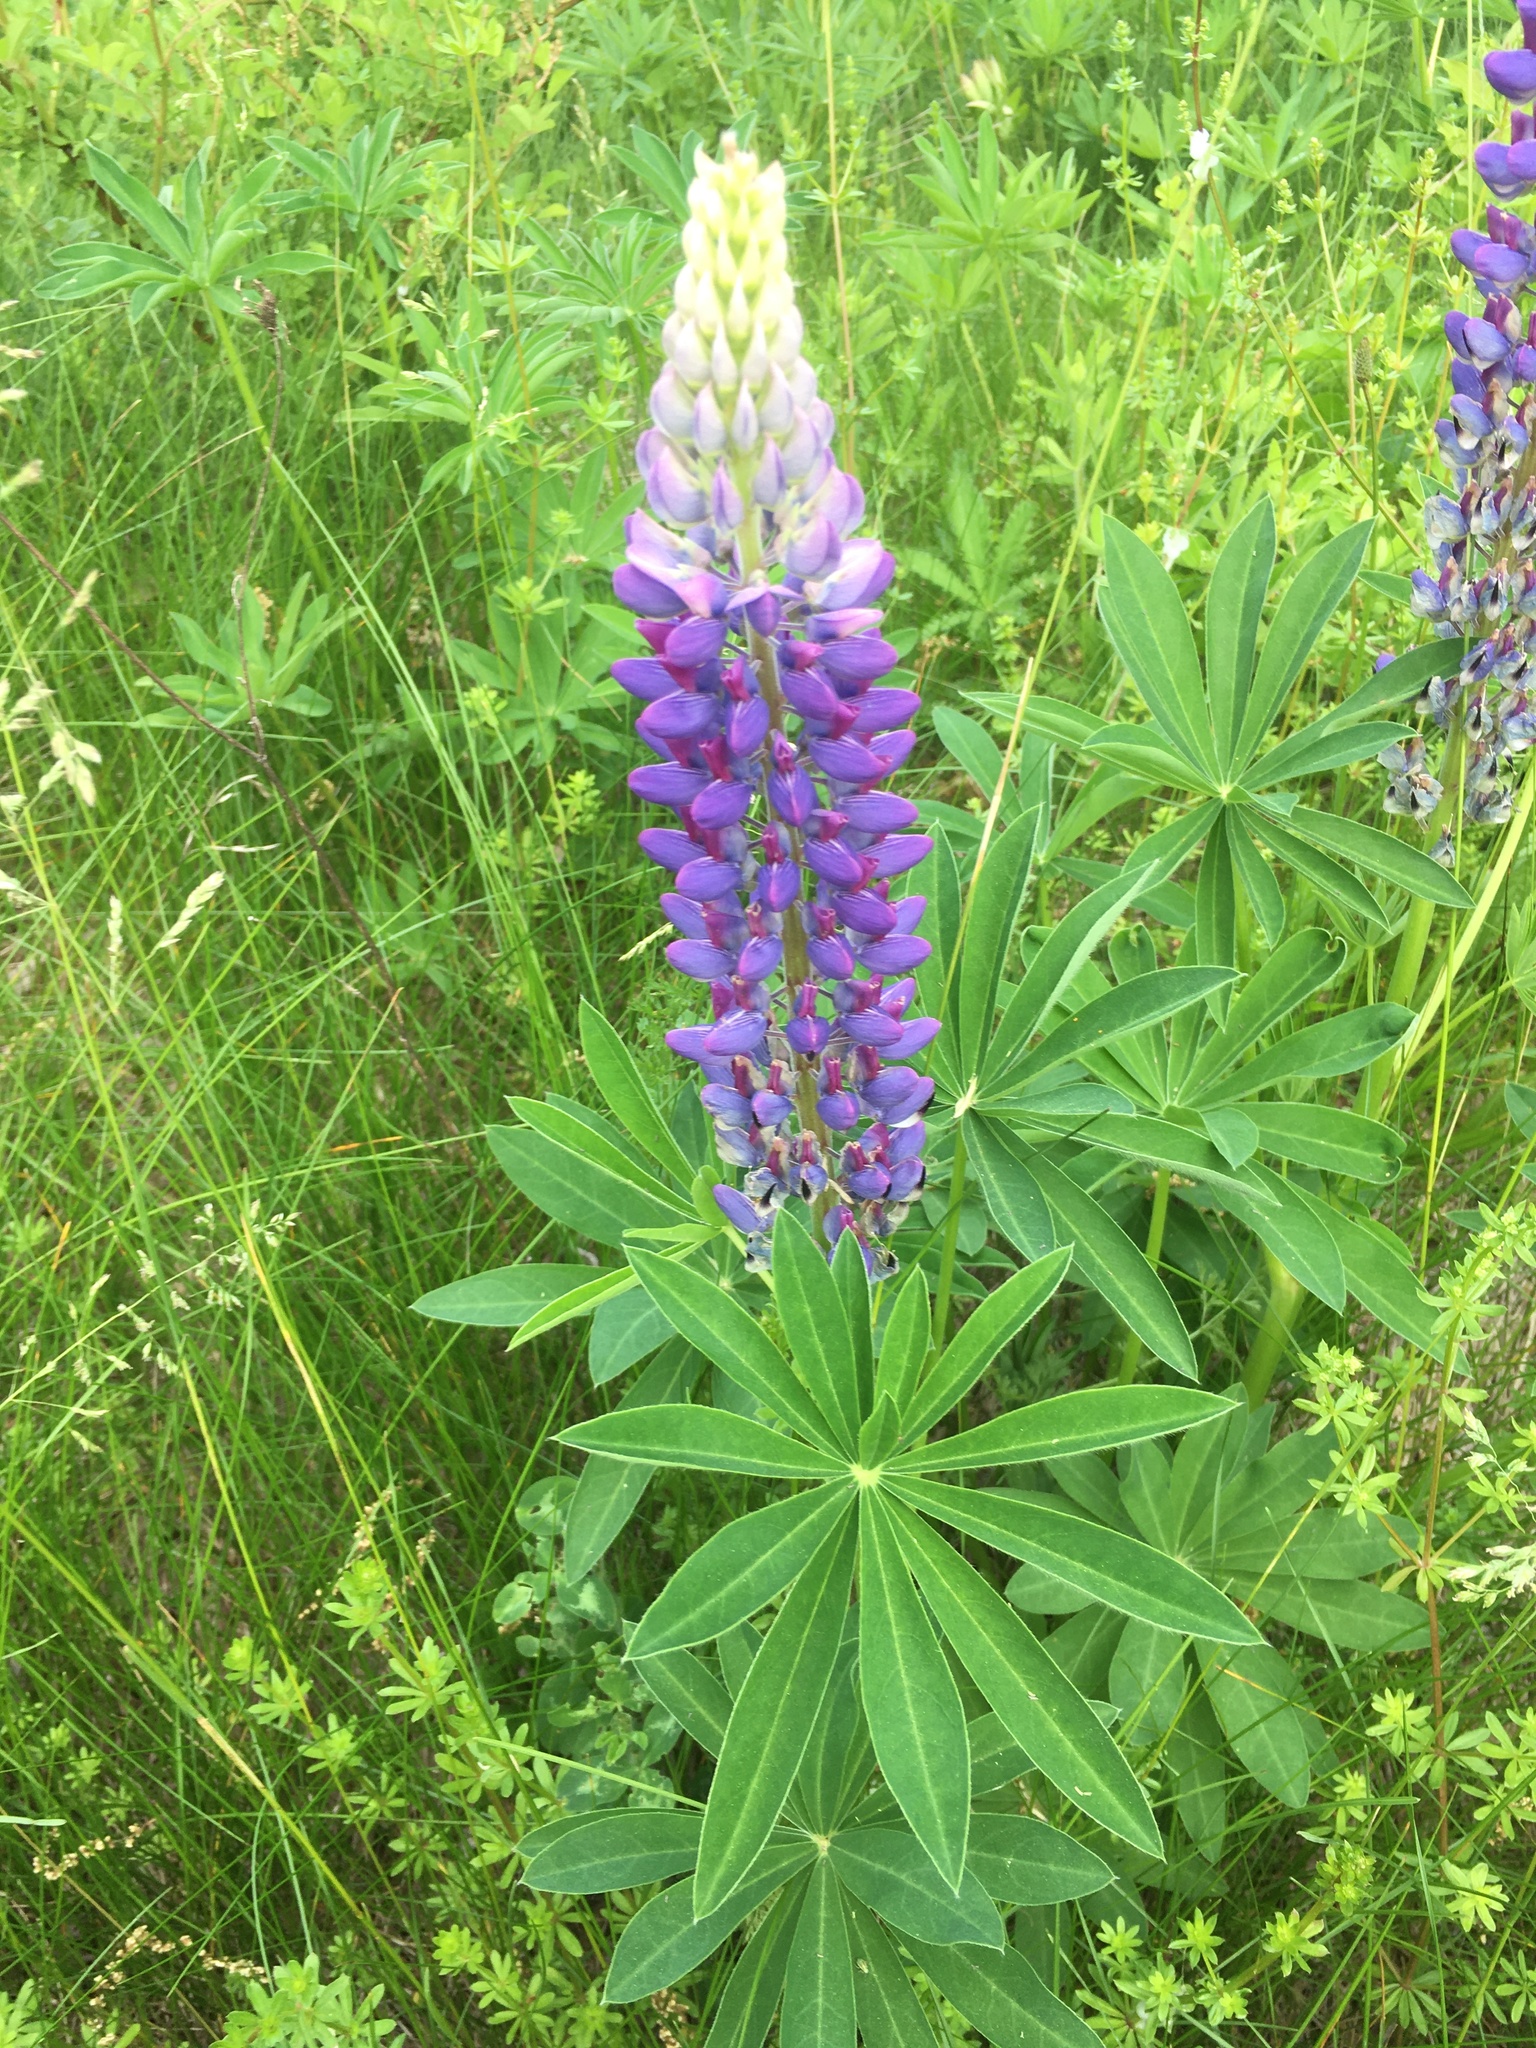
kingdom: Plantae
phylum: Tracheophyta
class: Magnoliopsida
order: Fabales
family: Fabaceae
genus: Lupinus
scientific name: Lupinus polyphyllus
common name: Garden lupin
